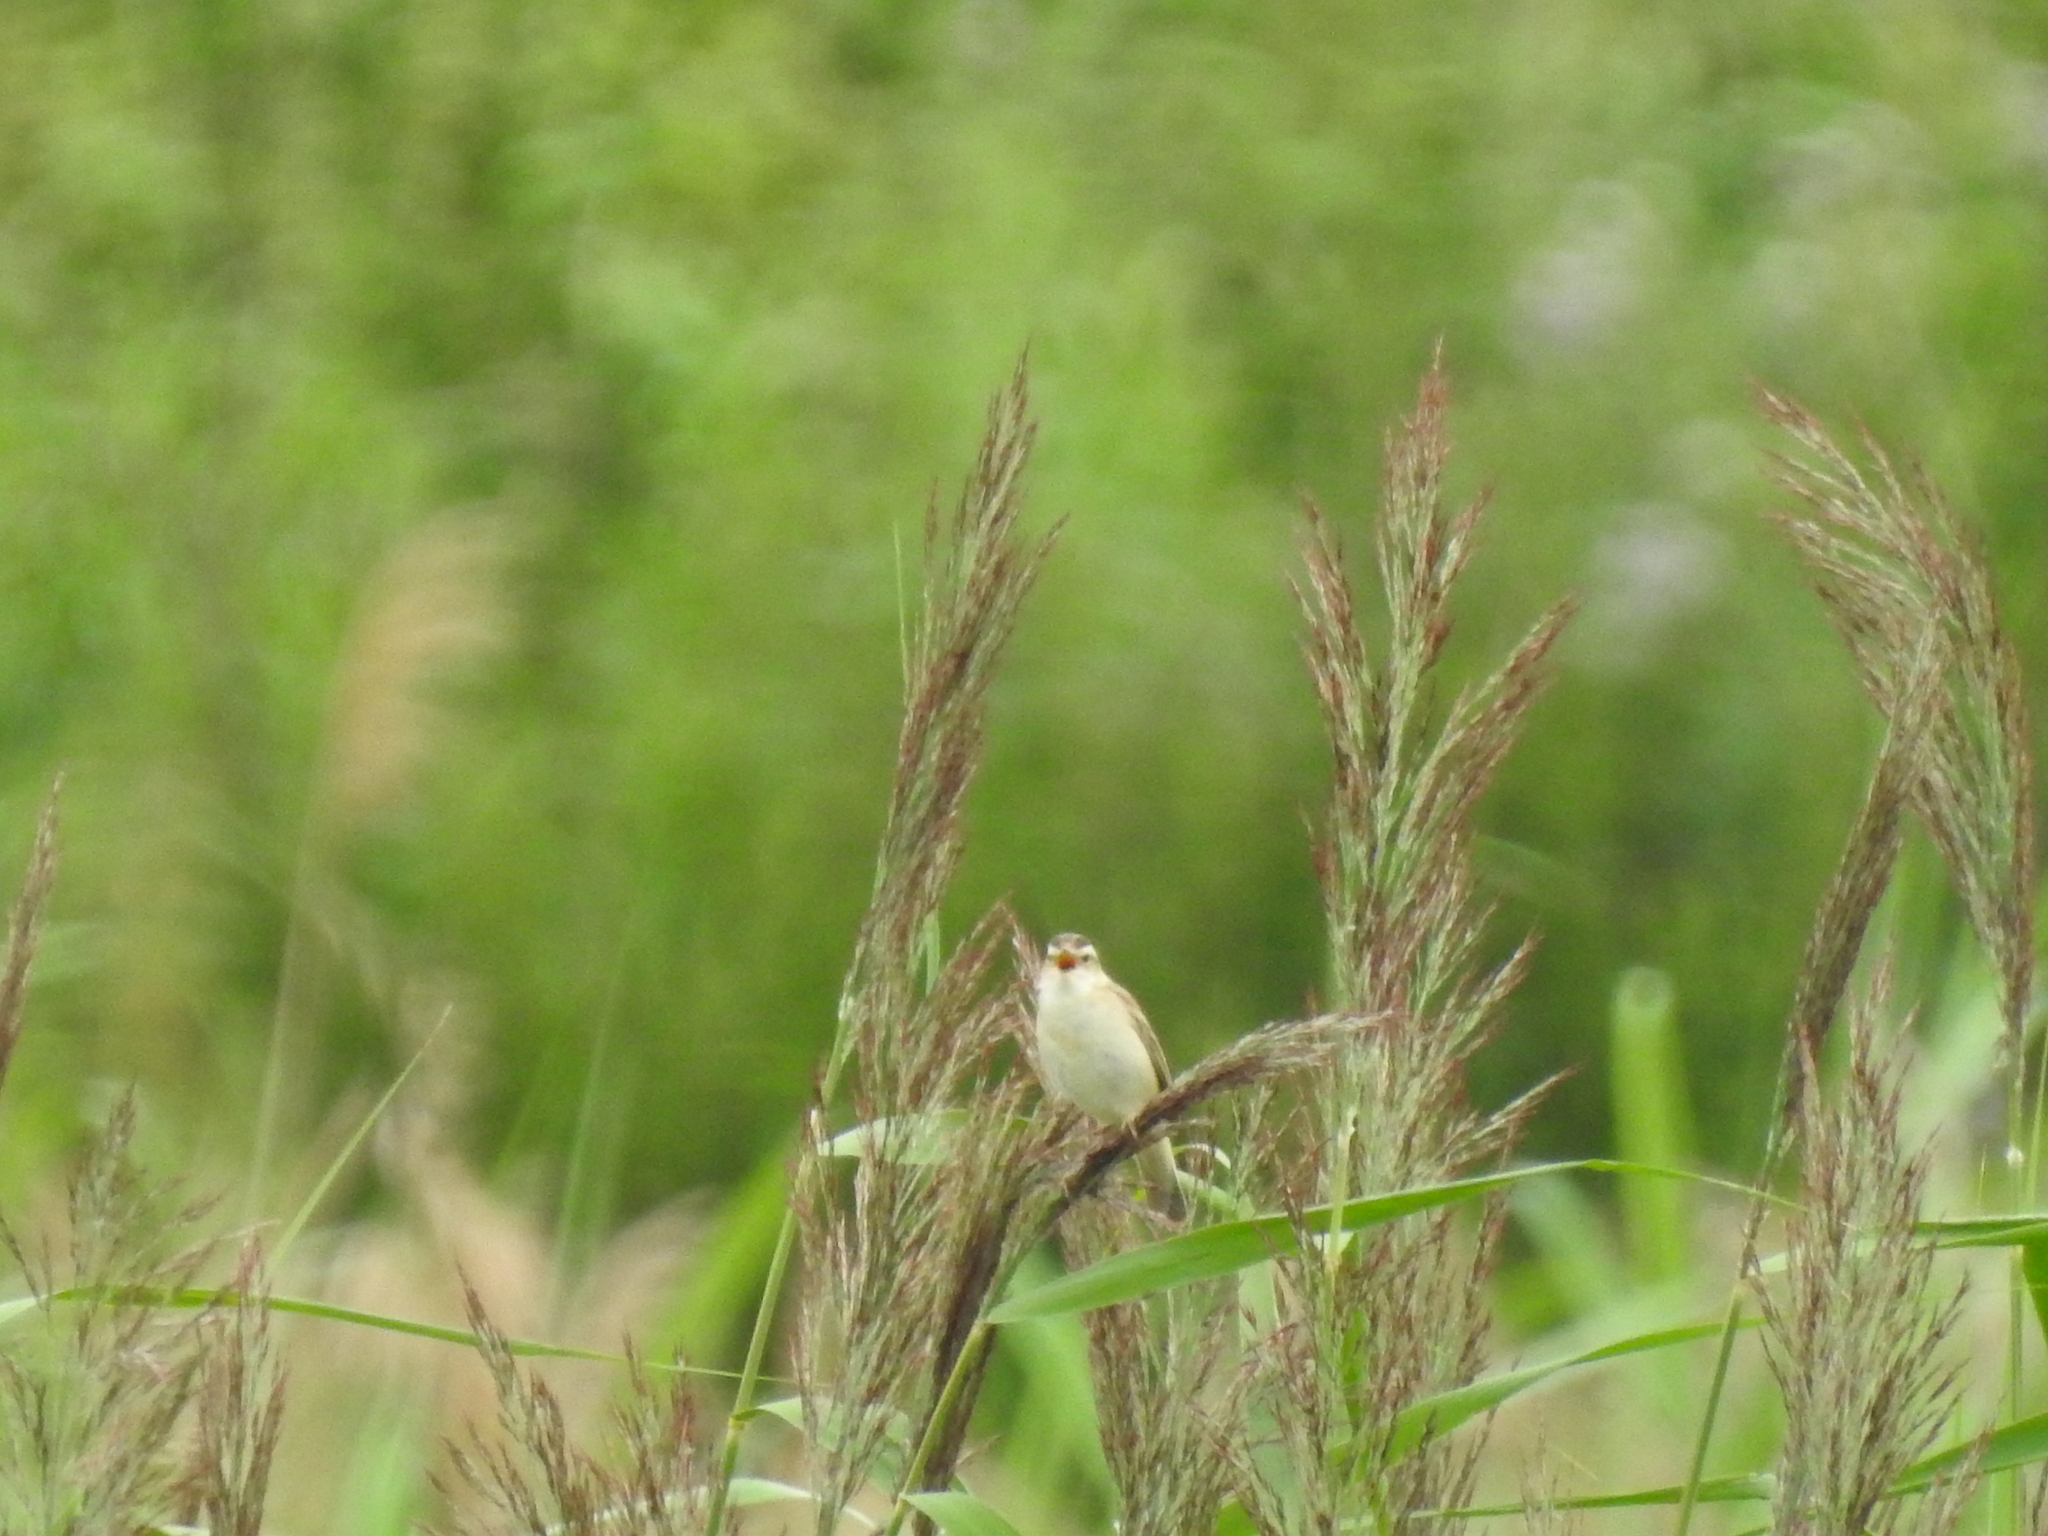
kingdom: Animalia
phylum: Chordata
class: Aves
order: Passeriformes
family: Acrocephalidae
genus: Acrocephalus
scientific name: Acrocephalus schoenobaenus
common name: Sedge warbler
